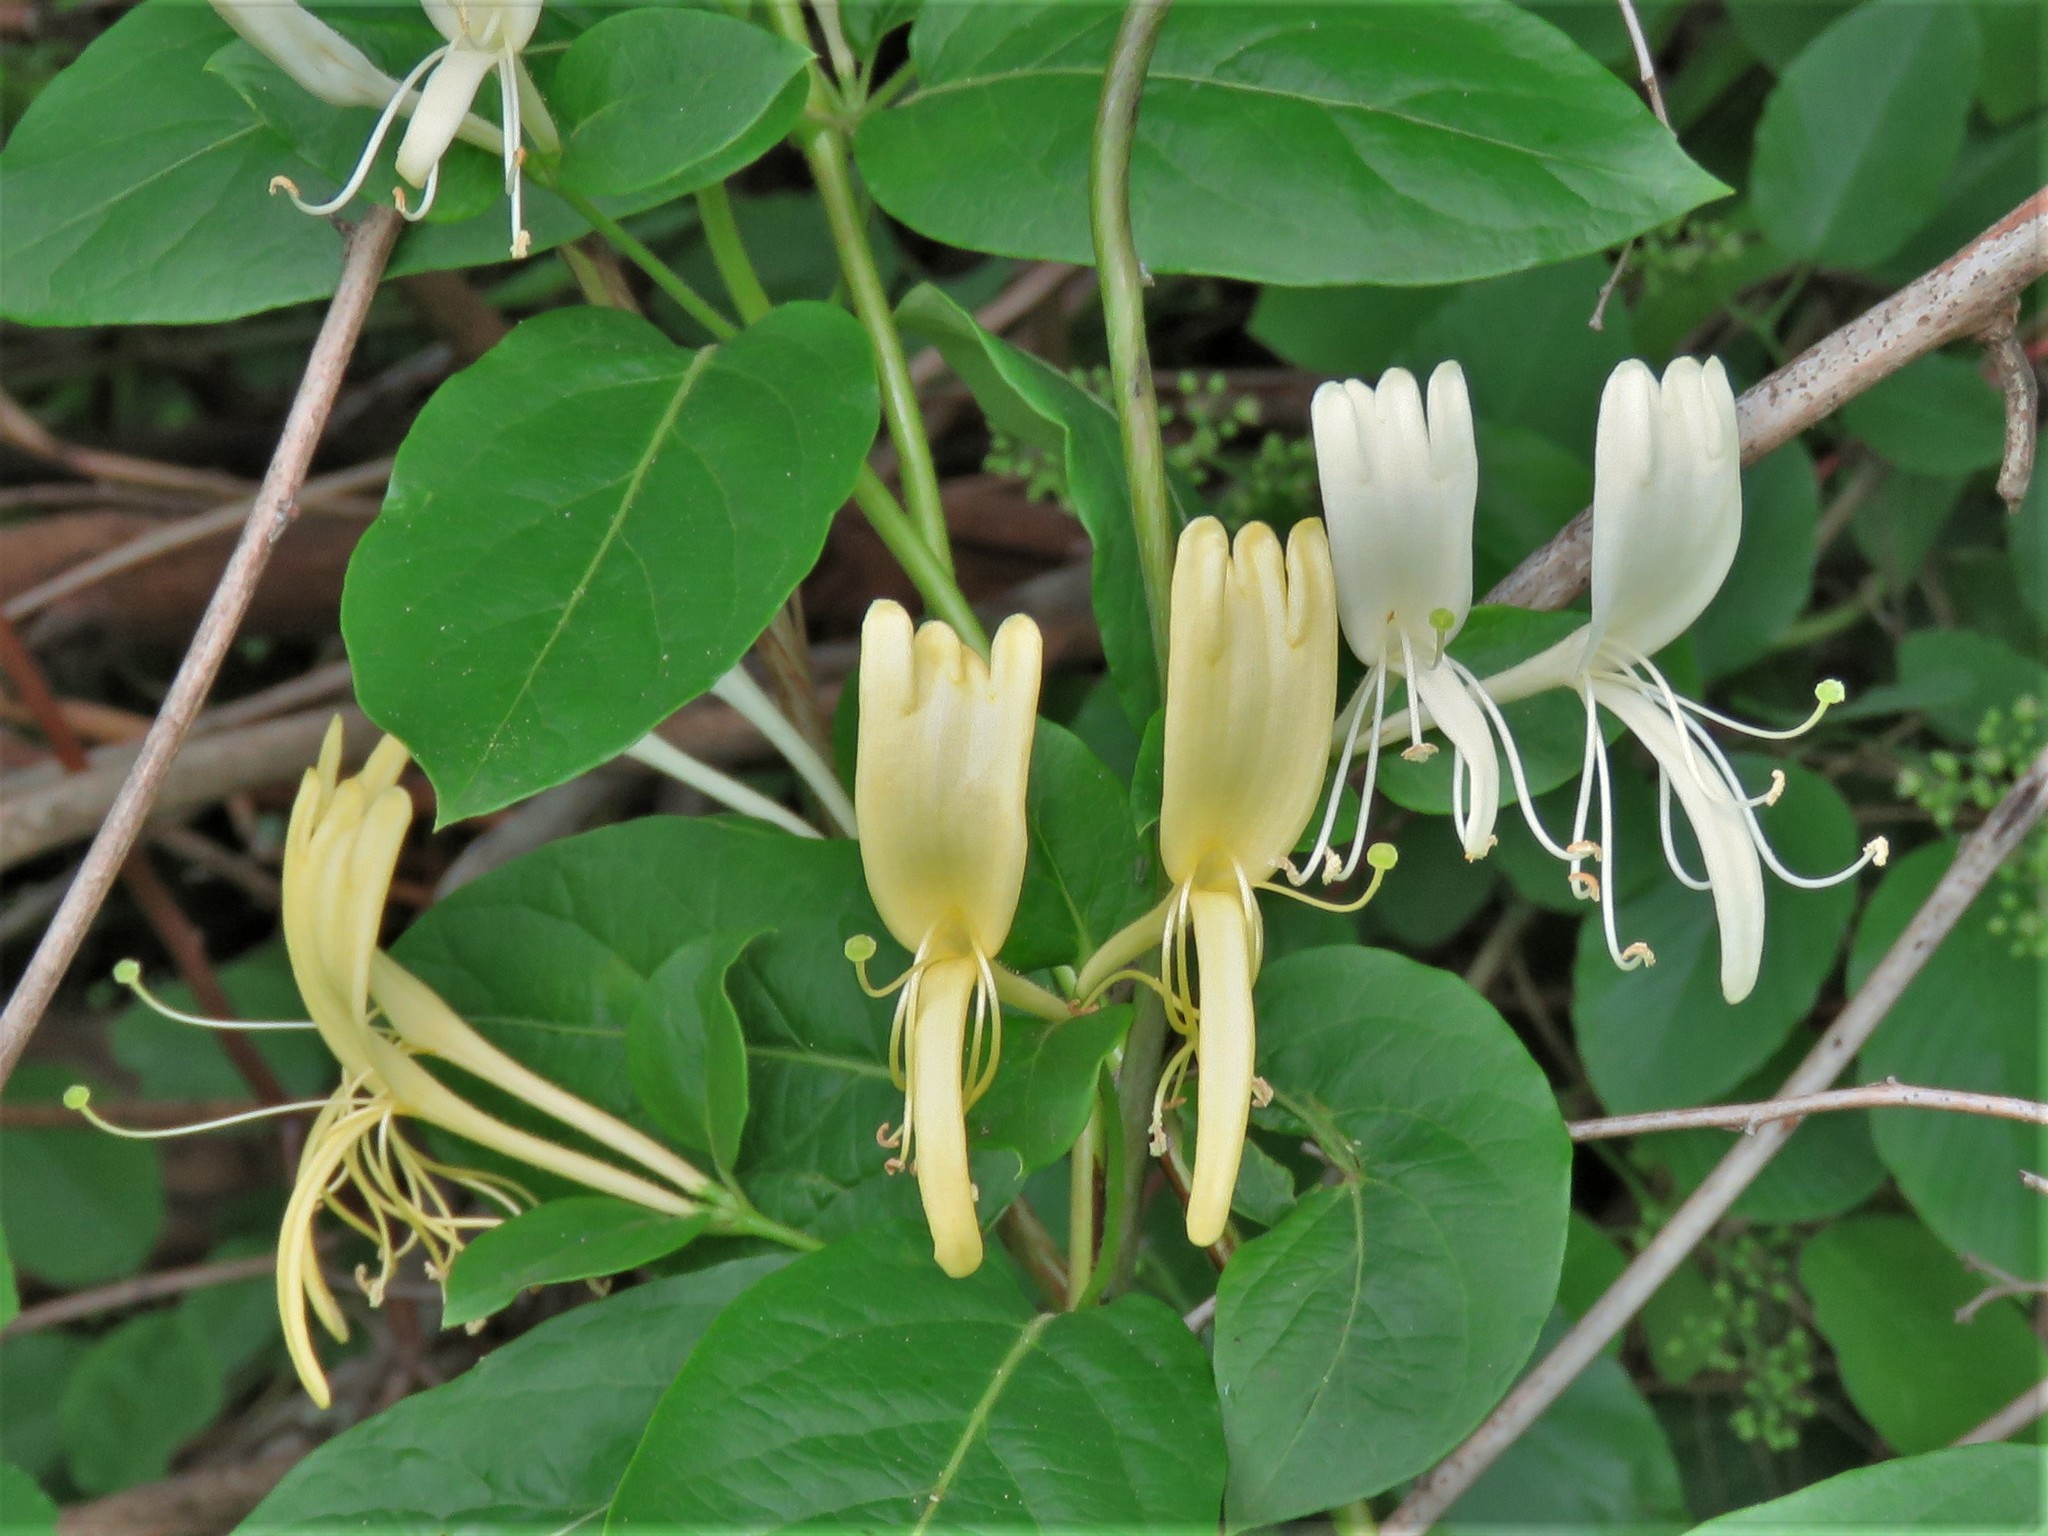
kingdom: Plantae
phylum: Tracheophyta
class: Magnoliopsida
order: Dipsacales
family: Caprifoliaceae
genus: Lonicera
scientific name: Lonicera japonica
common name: Japanese honeysuckle
